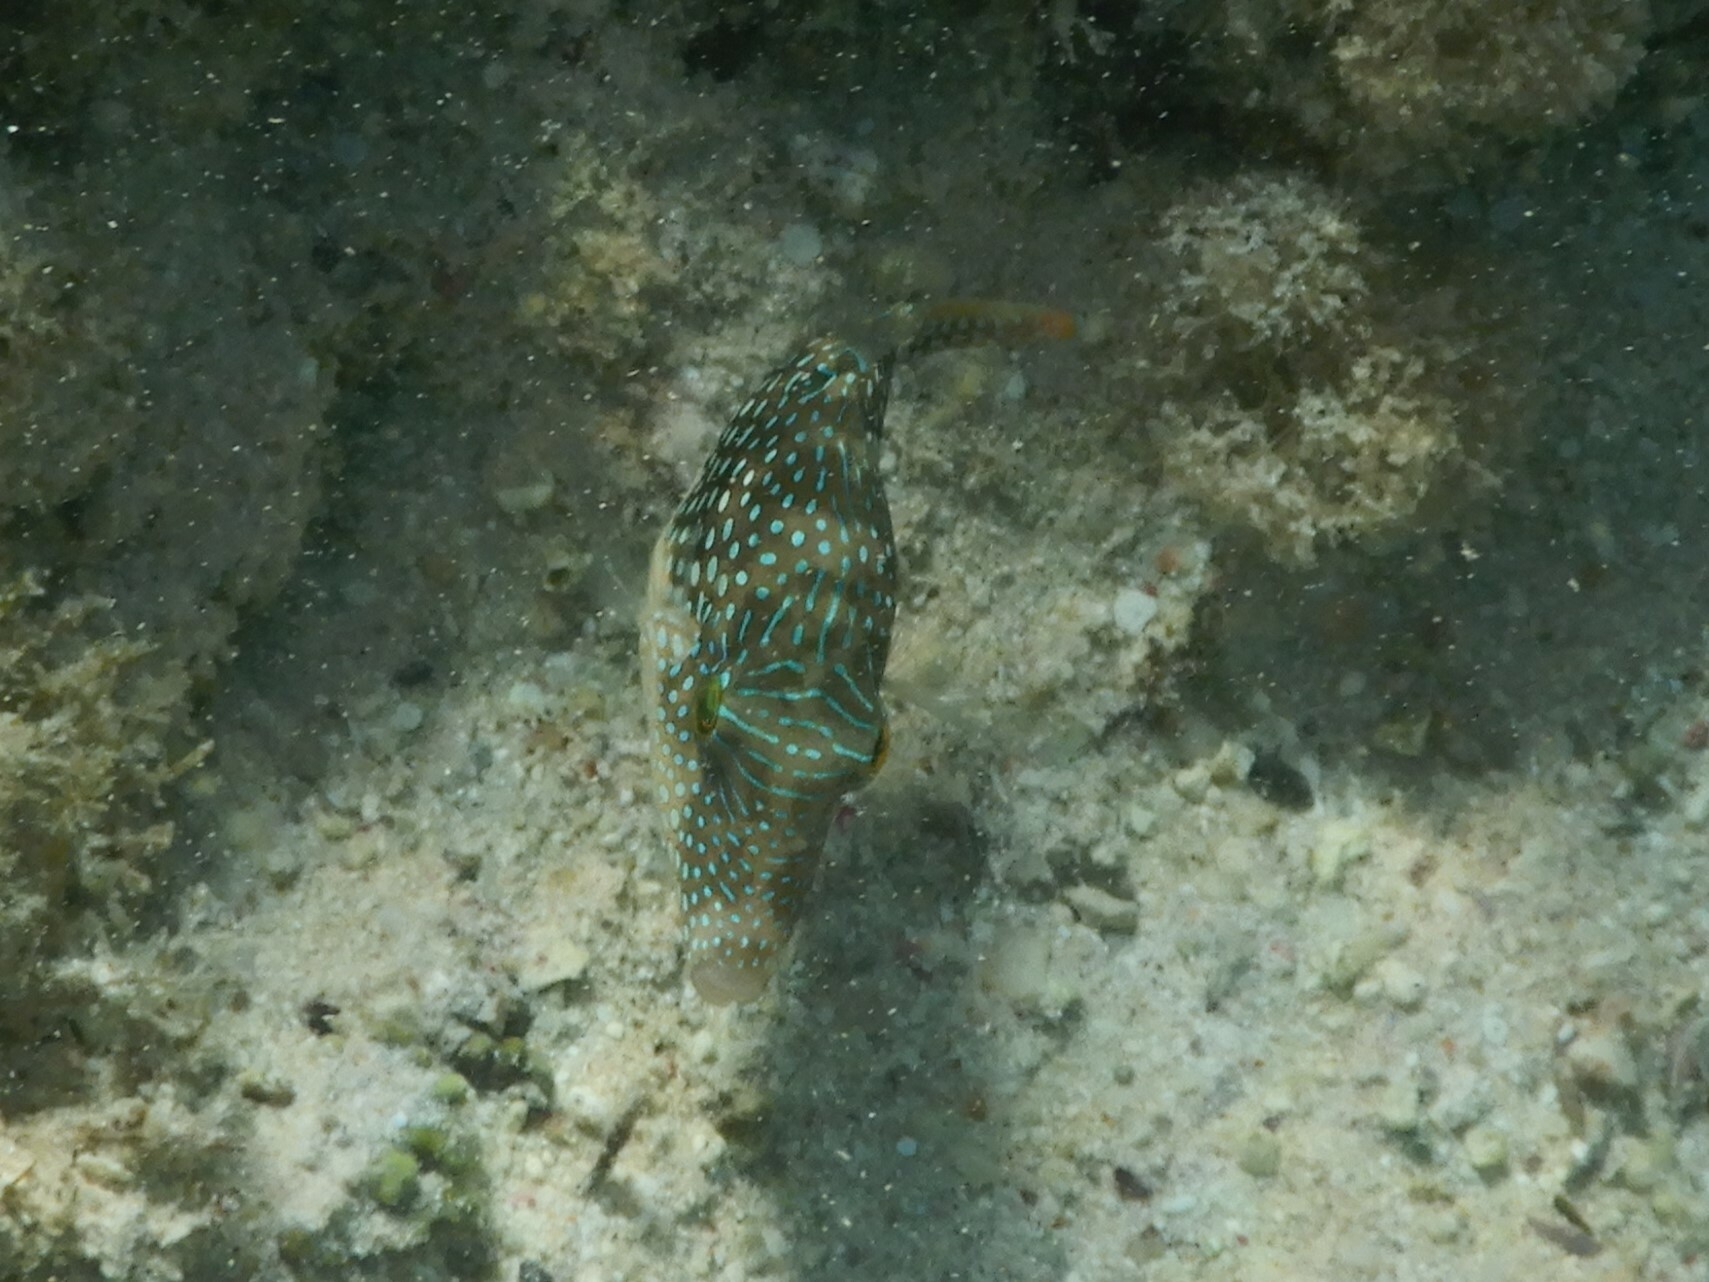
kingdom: Animalia
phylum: Chordata
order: Tetraodontiformes
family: Tetraodontidae
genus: Canthigaster
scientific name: Canthigaster margaritata
